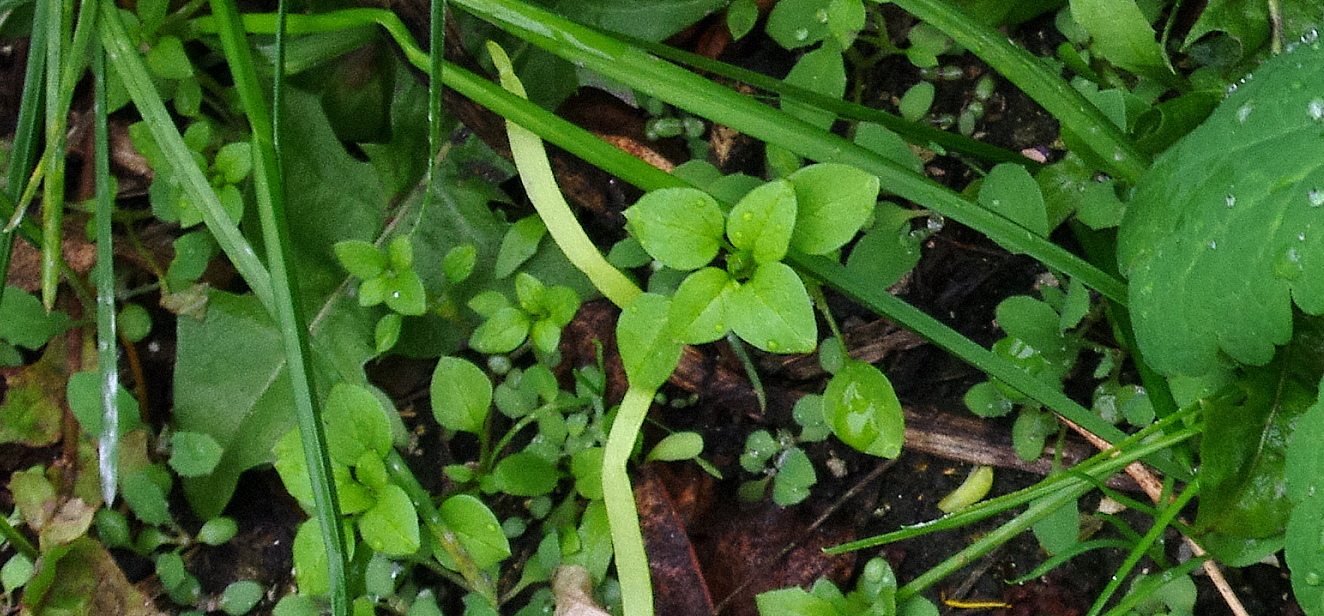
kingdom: Plantae
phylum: Tracheophyta
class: Magnoliopsida
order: Caryophyllales
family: Caryophyllaceae
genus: Stellaria
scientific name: Stellaria media
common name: Common chickweed
